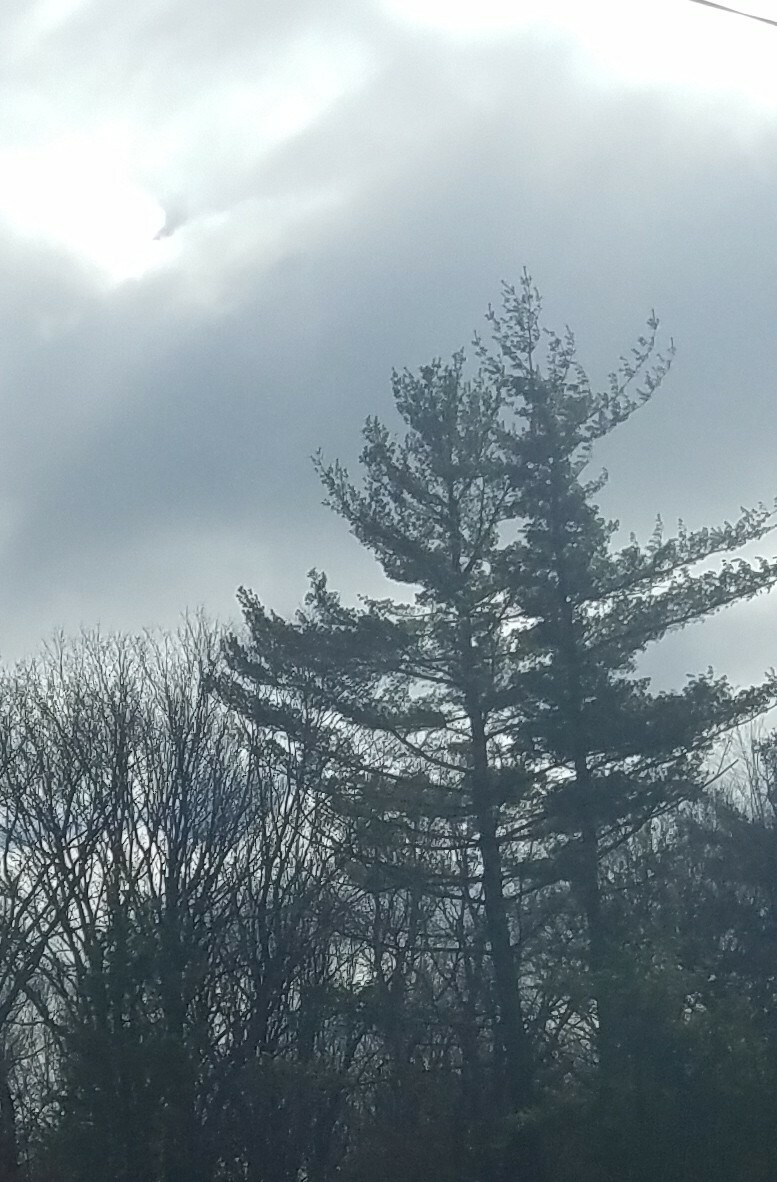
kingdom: Plantae
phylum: Tracheophyta
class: Pinopsida
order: Pinales
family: Pinaceae
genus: Pinus
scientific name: Pinus strobus
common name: Weymouth pine
